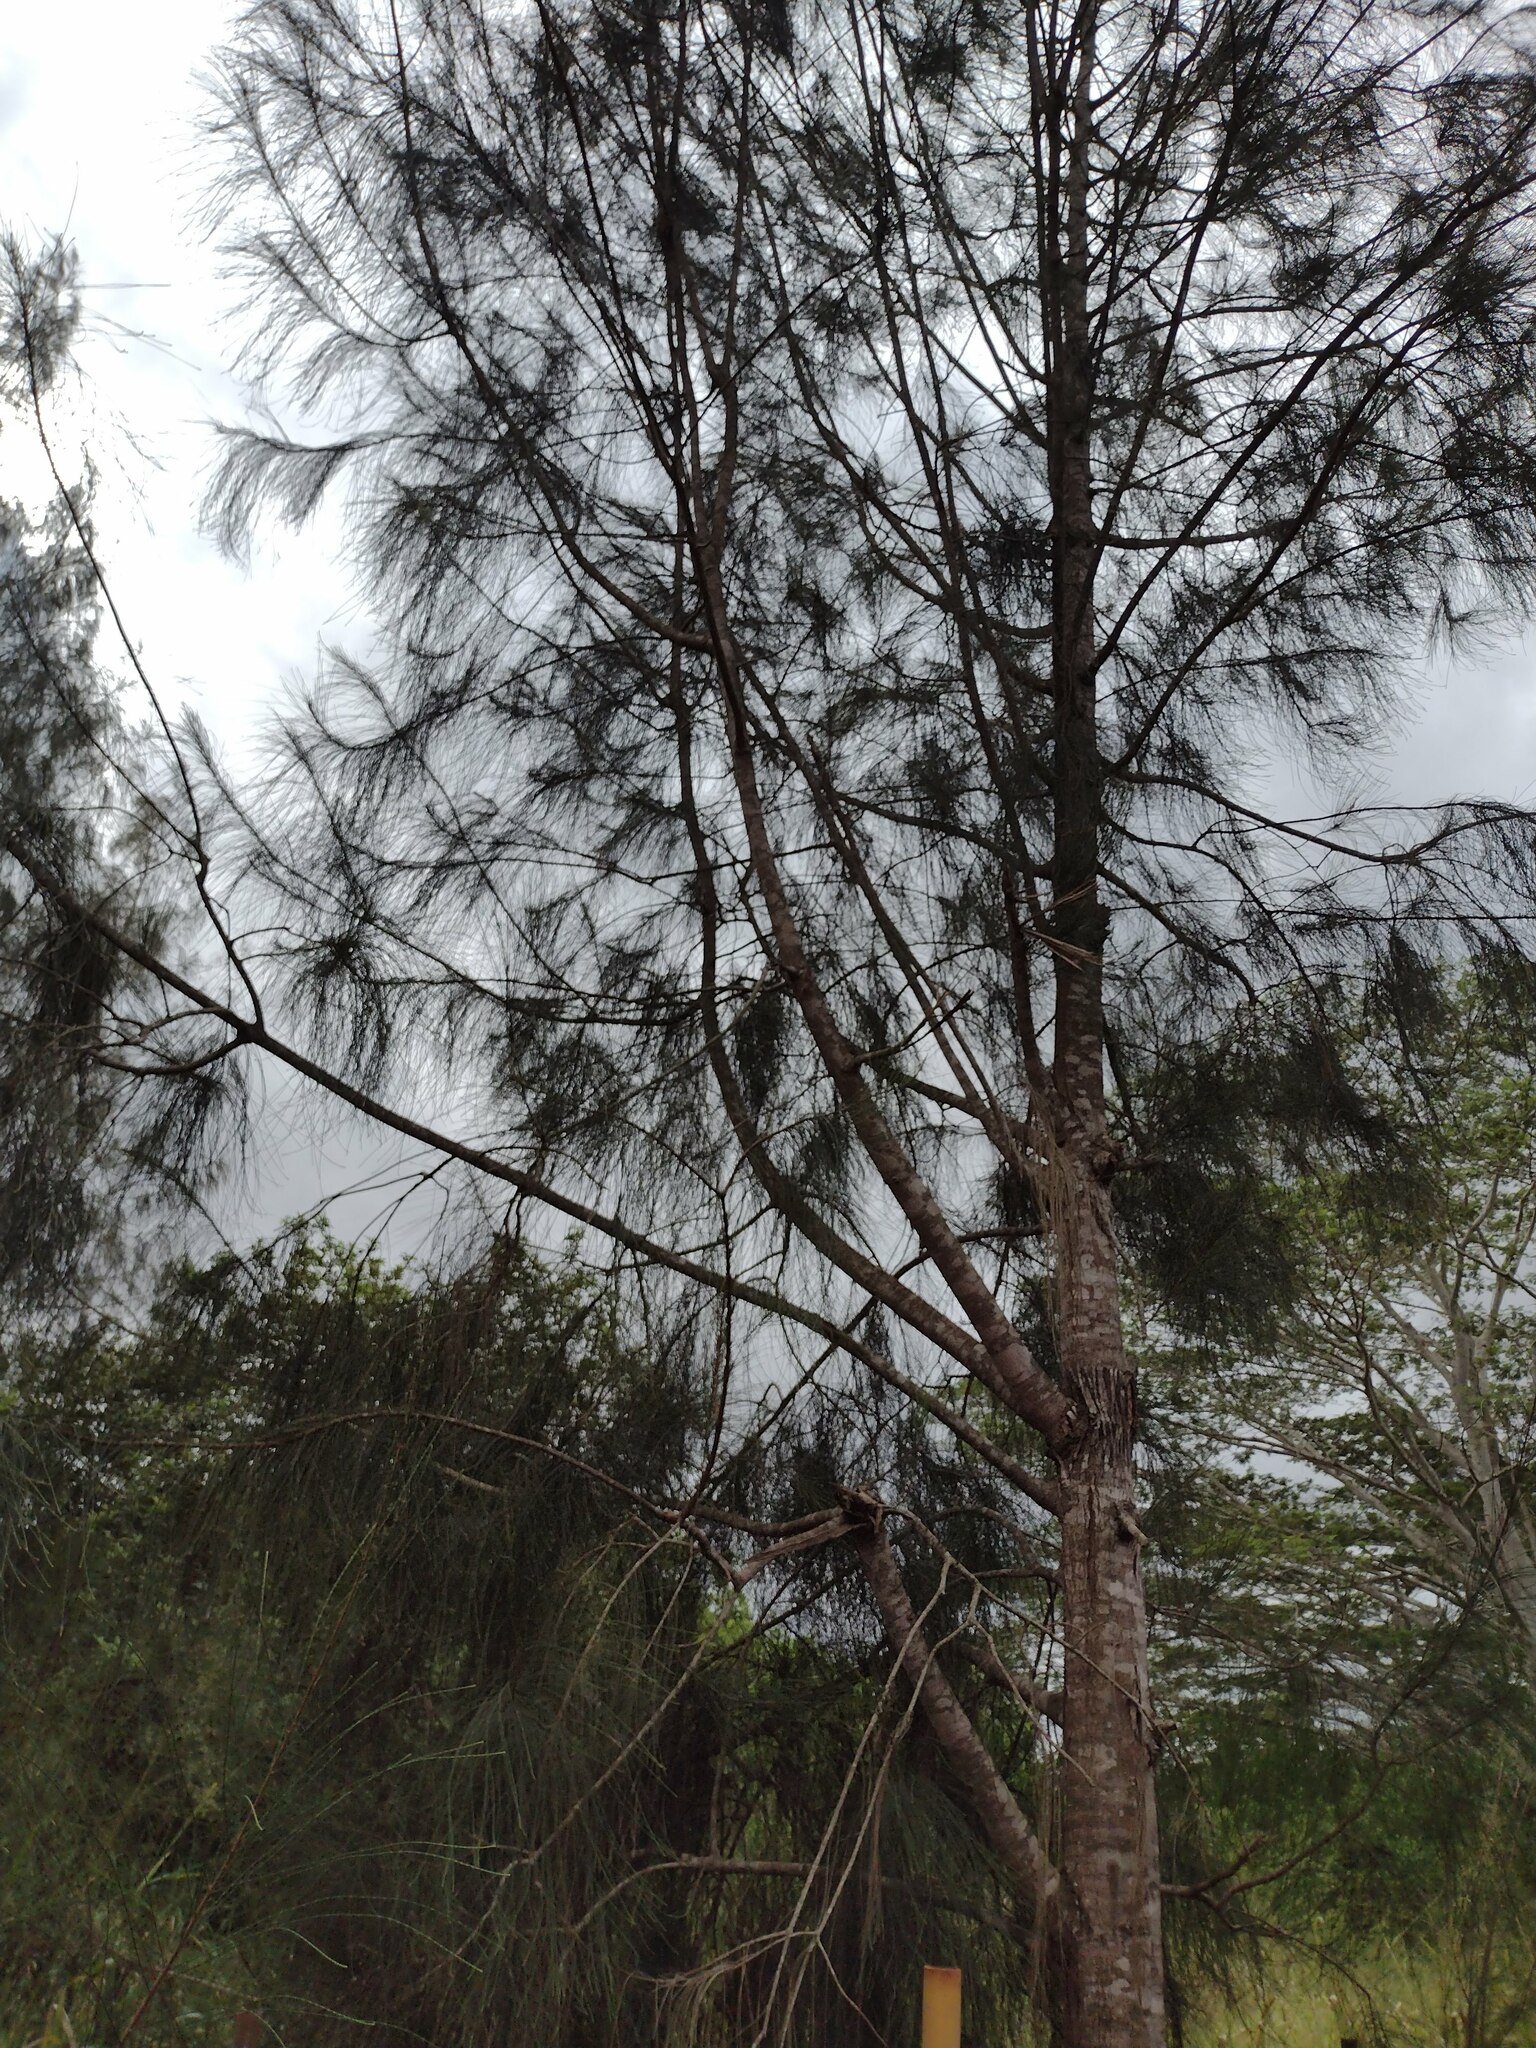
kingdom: Plantae
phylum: Tracheophyta
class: Magnoliopsida
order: Fagales
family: Casuarinaceae
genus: Casuarina
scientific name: Casuarina equisetifolia
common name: Beach sheoak
